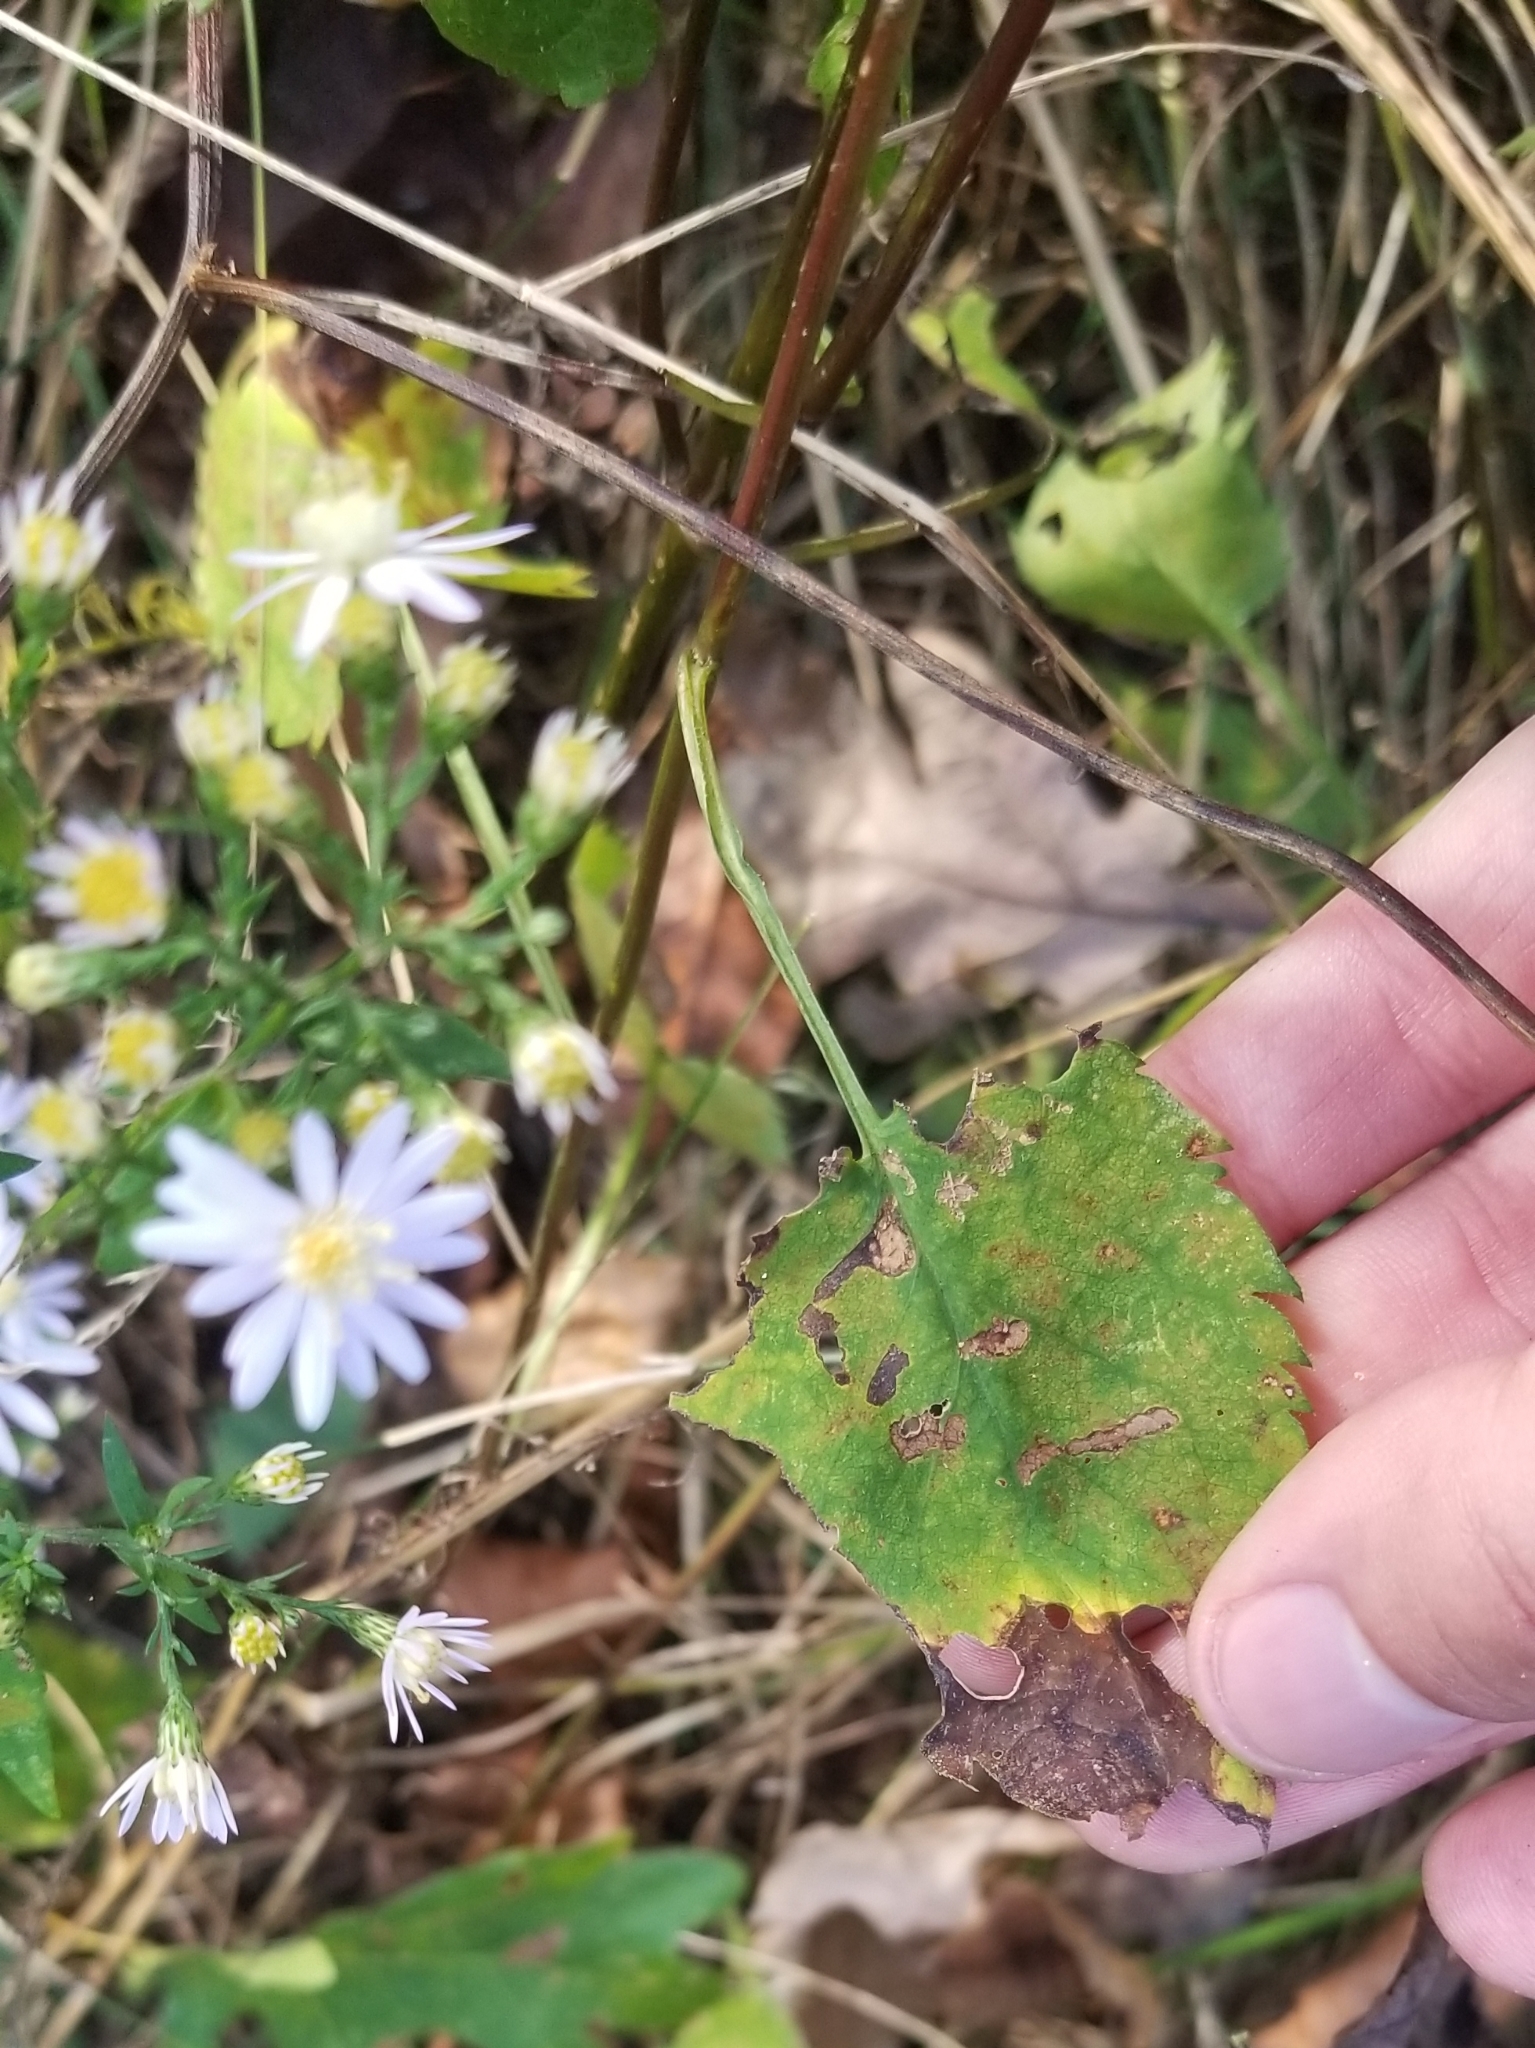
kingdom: Plantae
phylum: Tracheophyta
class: Magnoliopsida
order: Asterales
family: Asteraceae
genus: Symphyotrichum
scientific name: Symphyotrichum cordifolium
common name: Beeweed
